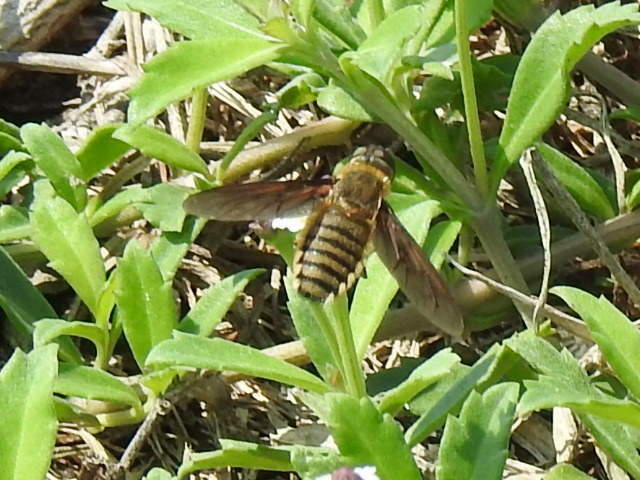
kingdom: Animalia
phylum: Arthropoda
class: Insecta
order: Diptera
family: Bombyliidae
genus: Poecilanthrax
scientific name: Poecilanthrax lucifer
